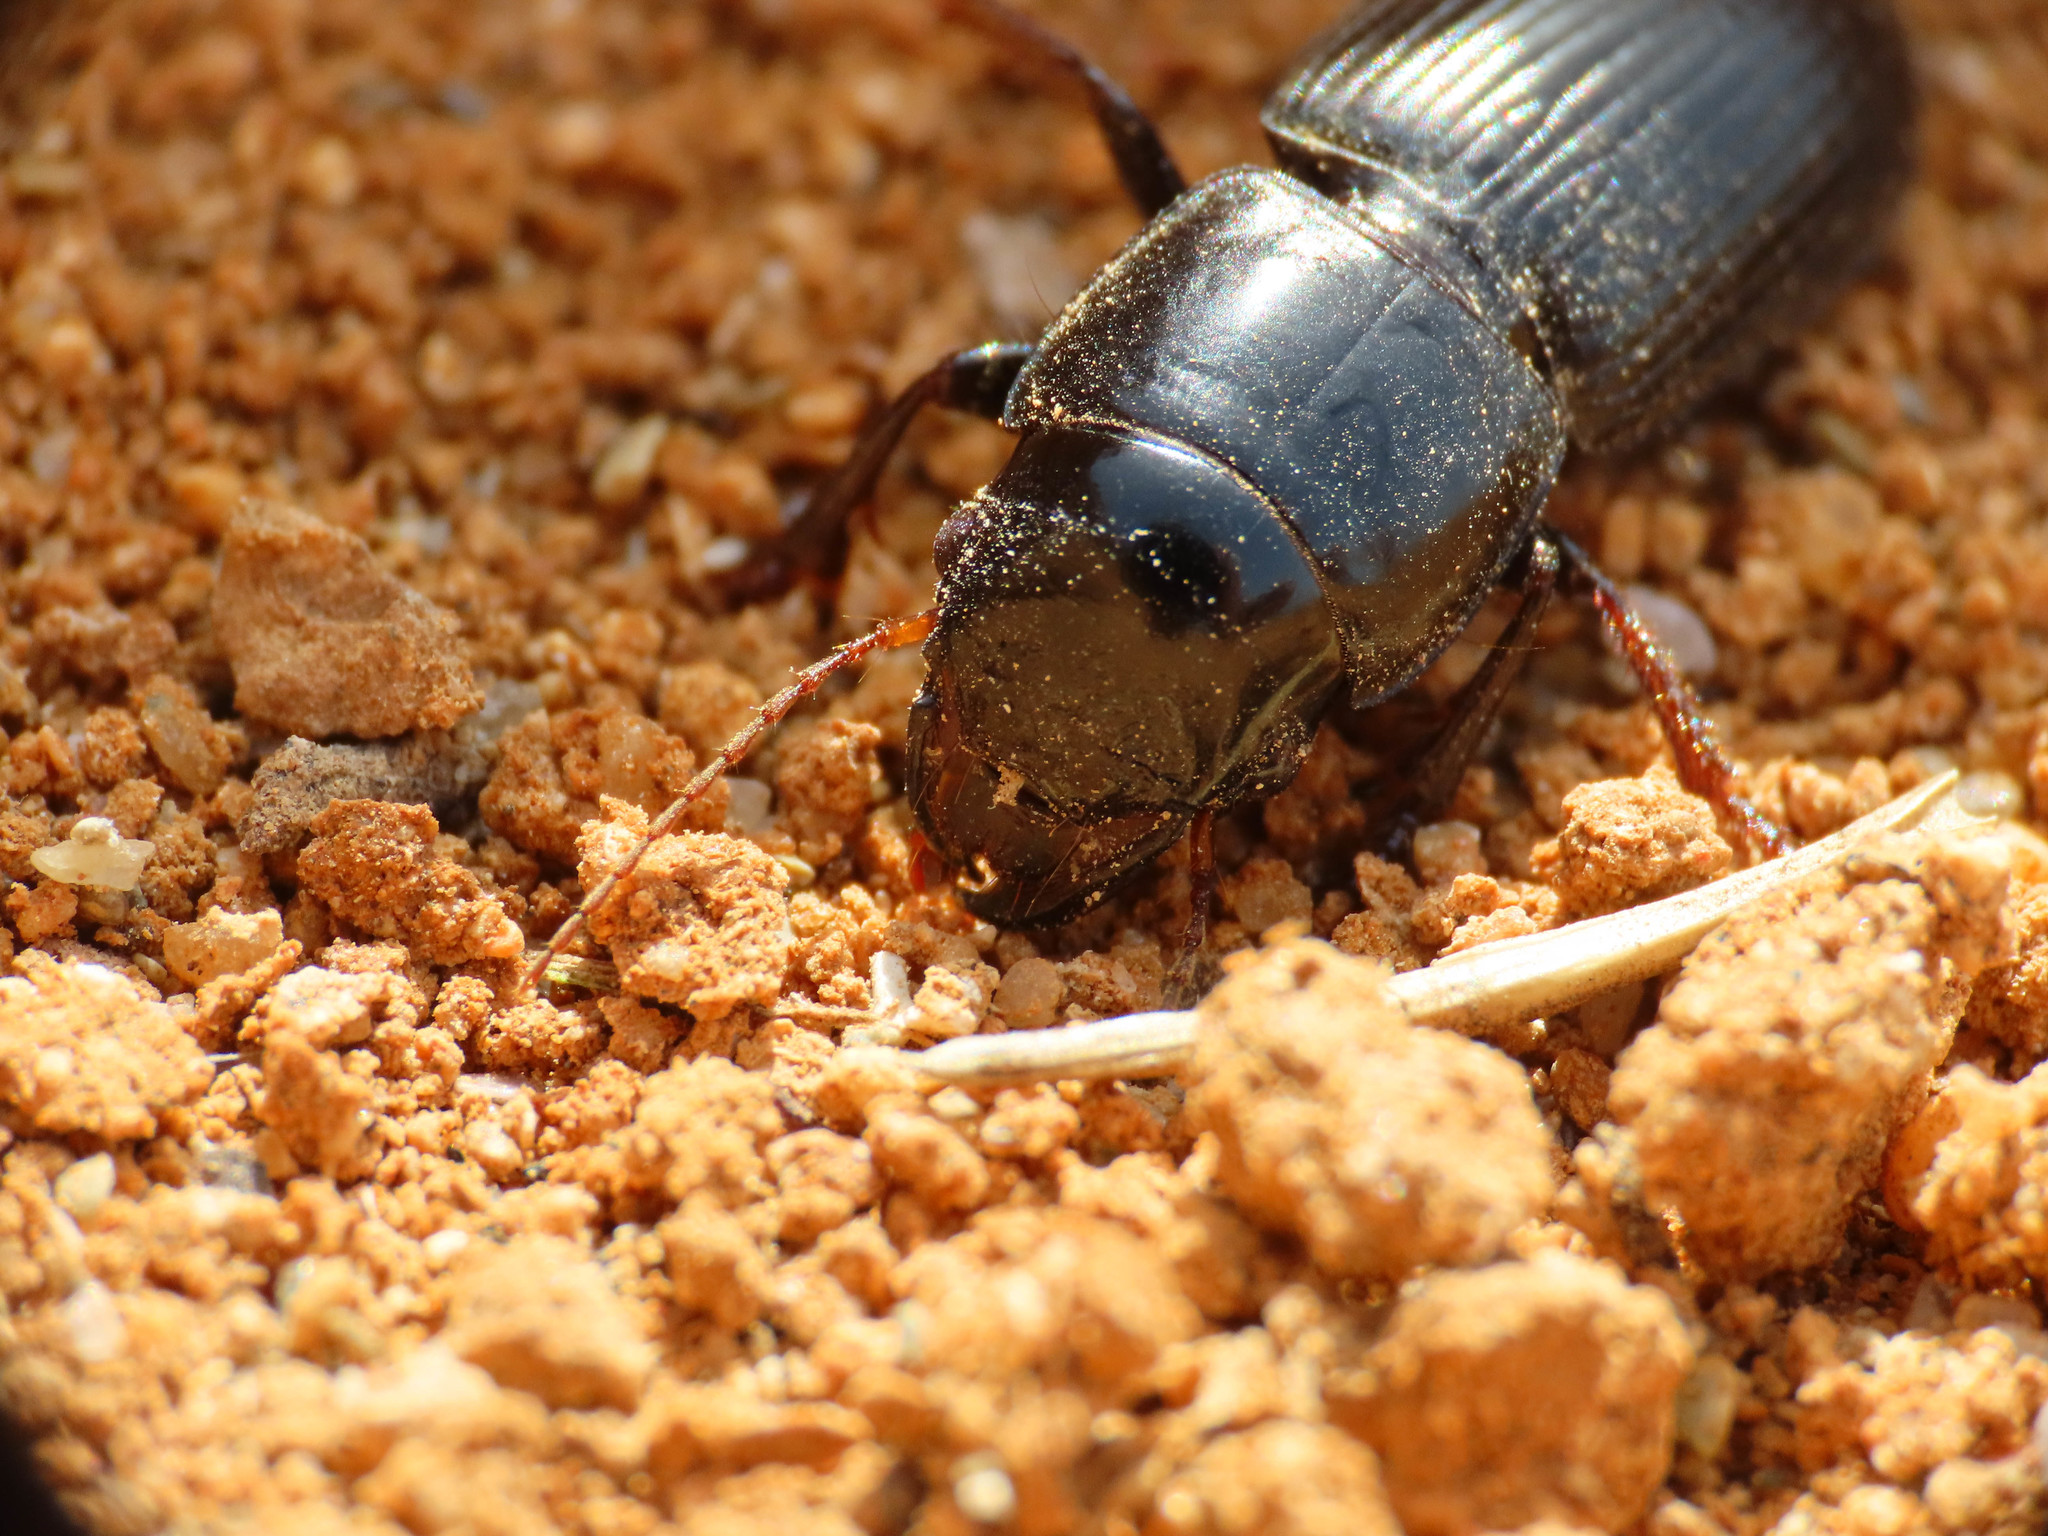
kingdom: Animalia
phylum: Arthropoda
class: Insecta
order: Coleoptera
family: Carabidae
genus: Acinopus
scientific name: Acinopus picipes
